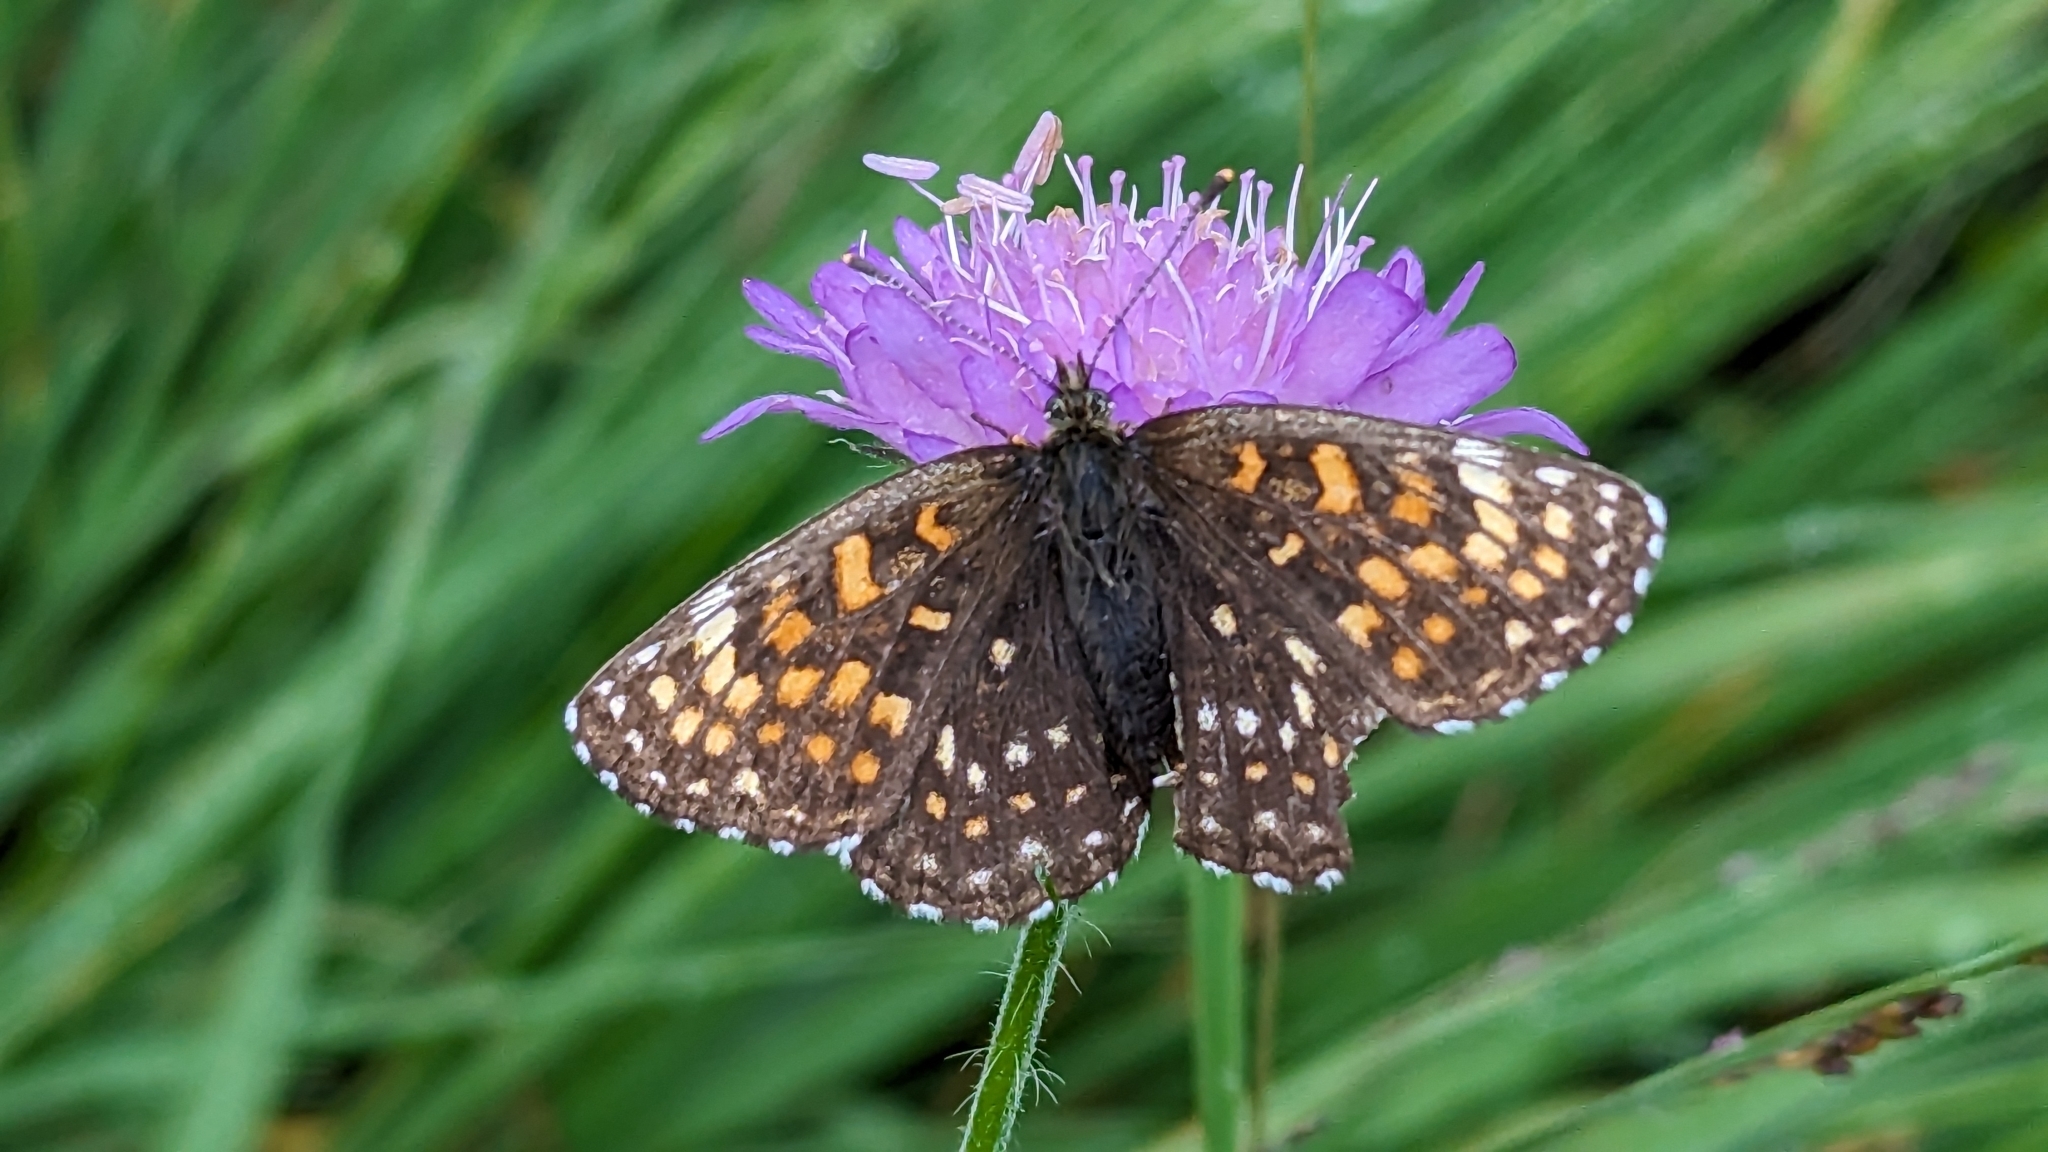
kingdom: Animalia
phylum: Arthropoda
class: Insecta
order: Lepidoptera
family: Nymphalidae
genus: Melitaea
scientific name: Melitaea diamina
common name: False heath fritillary
